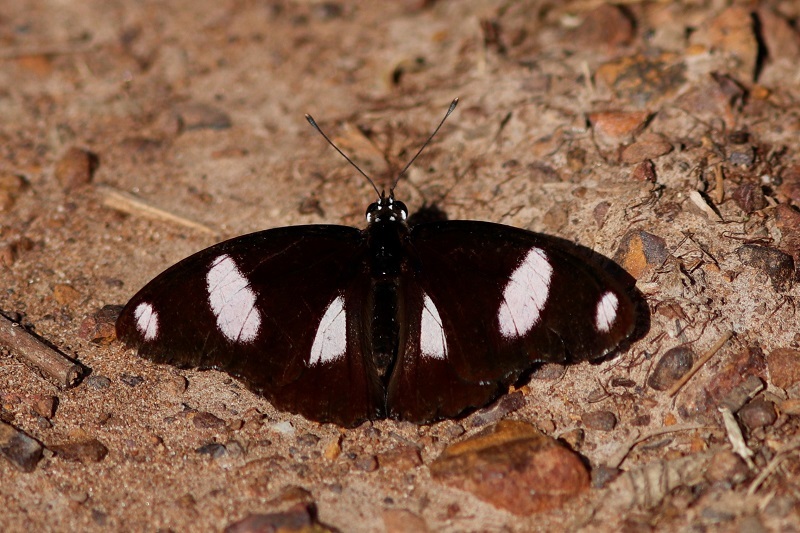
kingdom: Animalia
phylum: Arthropoda
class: Insecta
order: Lepidoptera
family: Nymphalidae
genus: Hypolimnas
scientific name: Hypolimnas misippus
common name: False plain tiger
